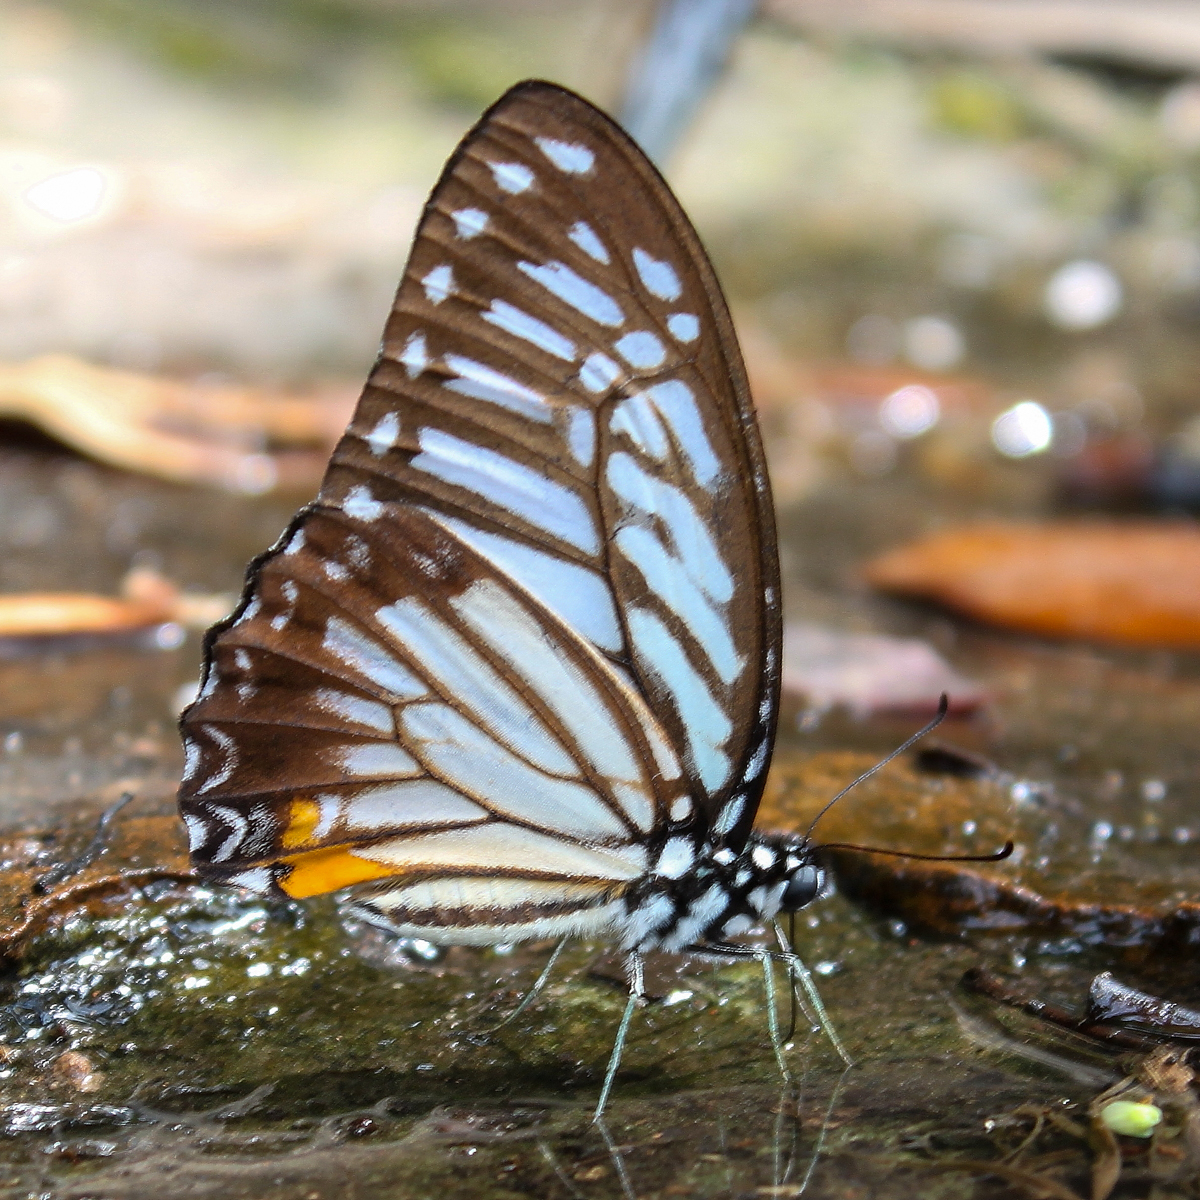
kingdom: Animalia
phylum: Arthropoda
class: Insecta
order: Lepidoptera
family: Papilionidae
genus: Graphium
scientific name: Graphium xenocles
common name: Great zebra
